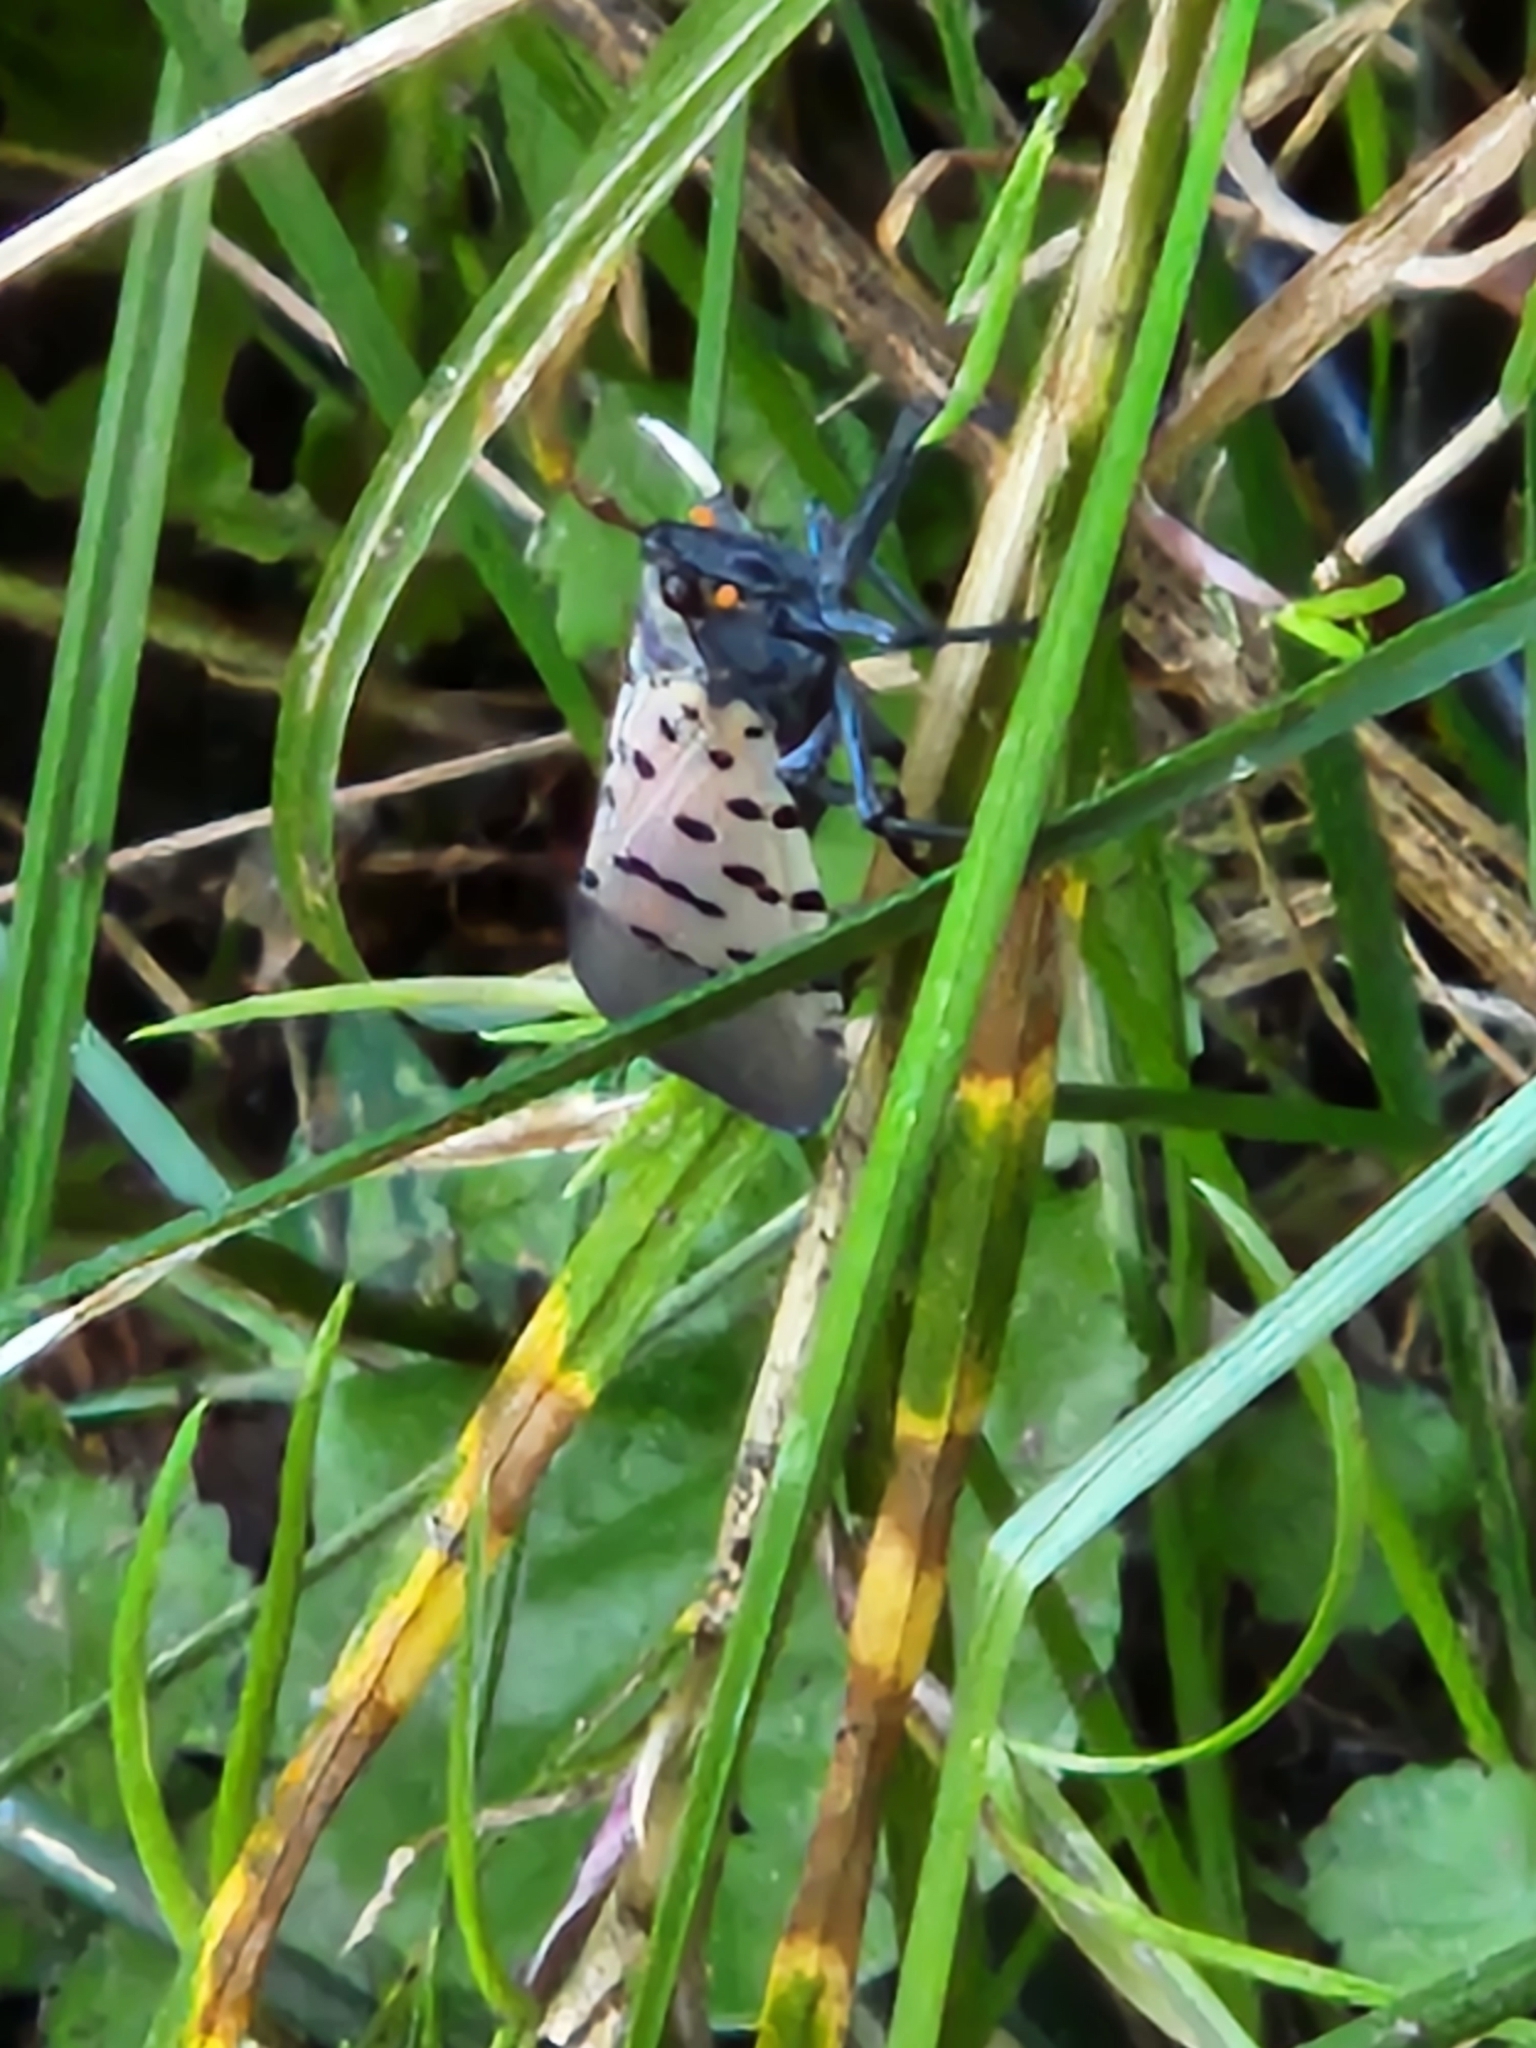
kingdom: Animalia
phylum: Arthropoda
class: Insecta
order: Hemiptera
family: Fulgoridae
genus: Lycorma
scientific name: Lycorma delicatula
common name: Spotted lanternfly
